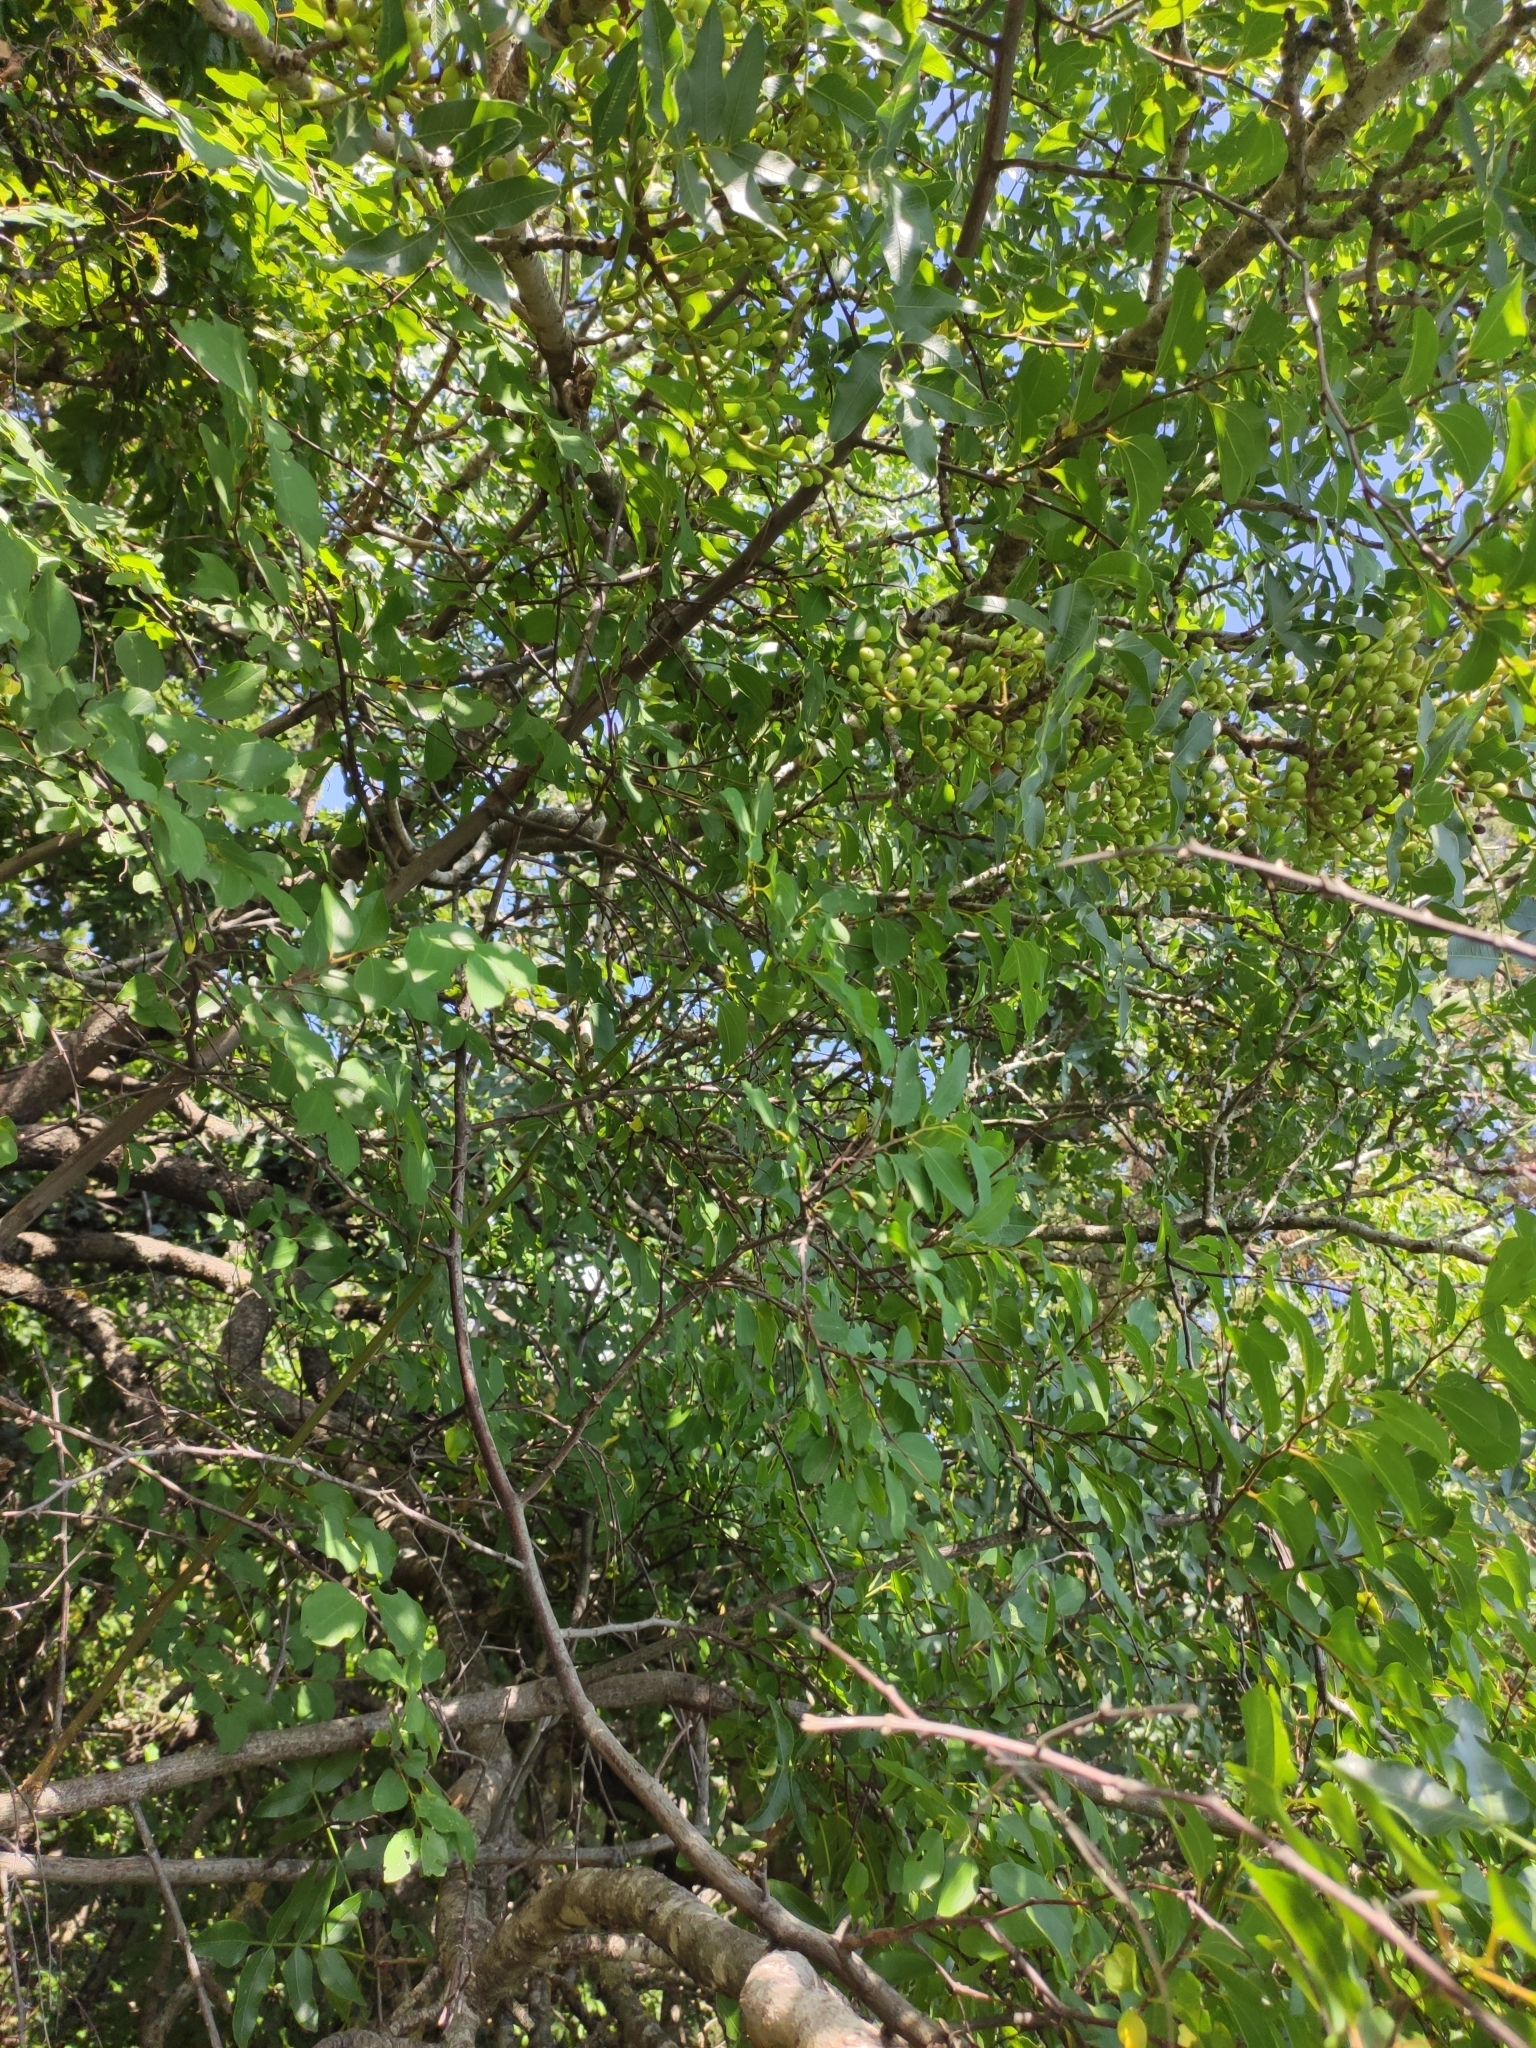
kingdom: Plantae
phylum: Tracheophyta
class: Magnoliopsida
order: Sapindales
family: Anacardiaceae
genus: Pistacia
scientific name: Pistacia atlantica
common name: Mt. atlas mastic tree
